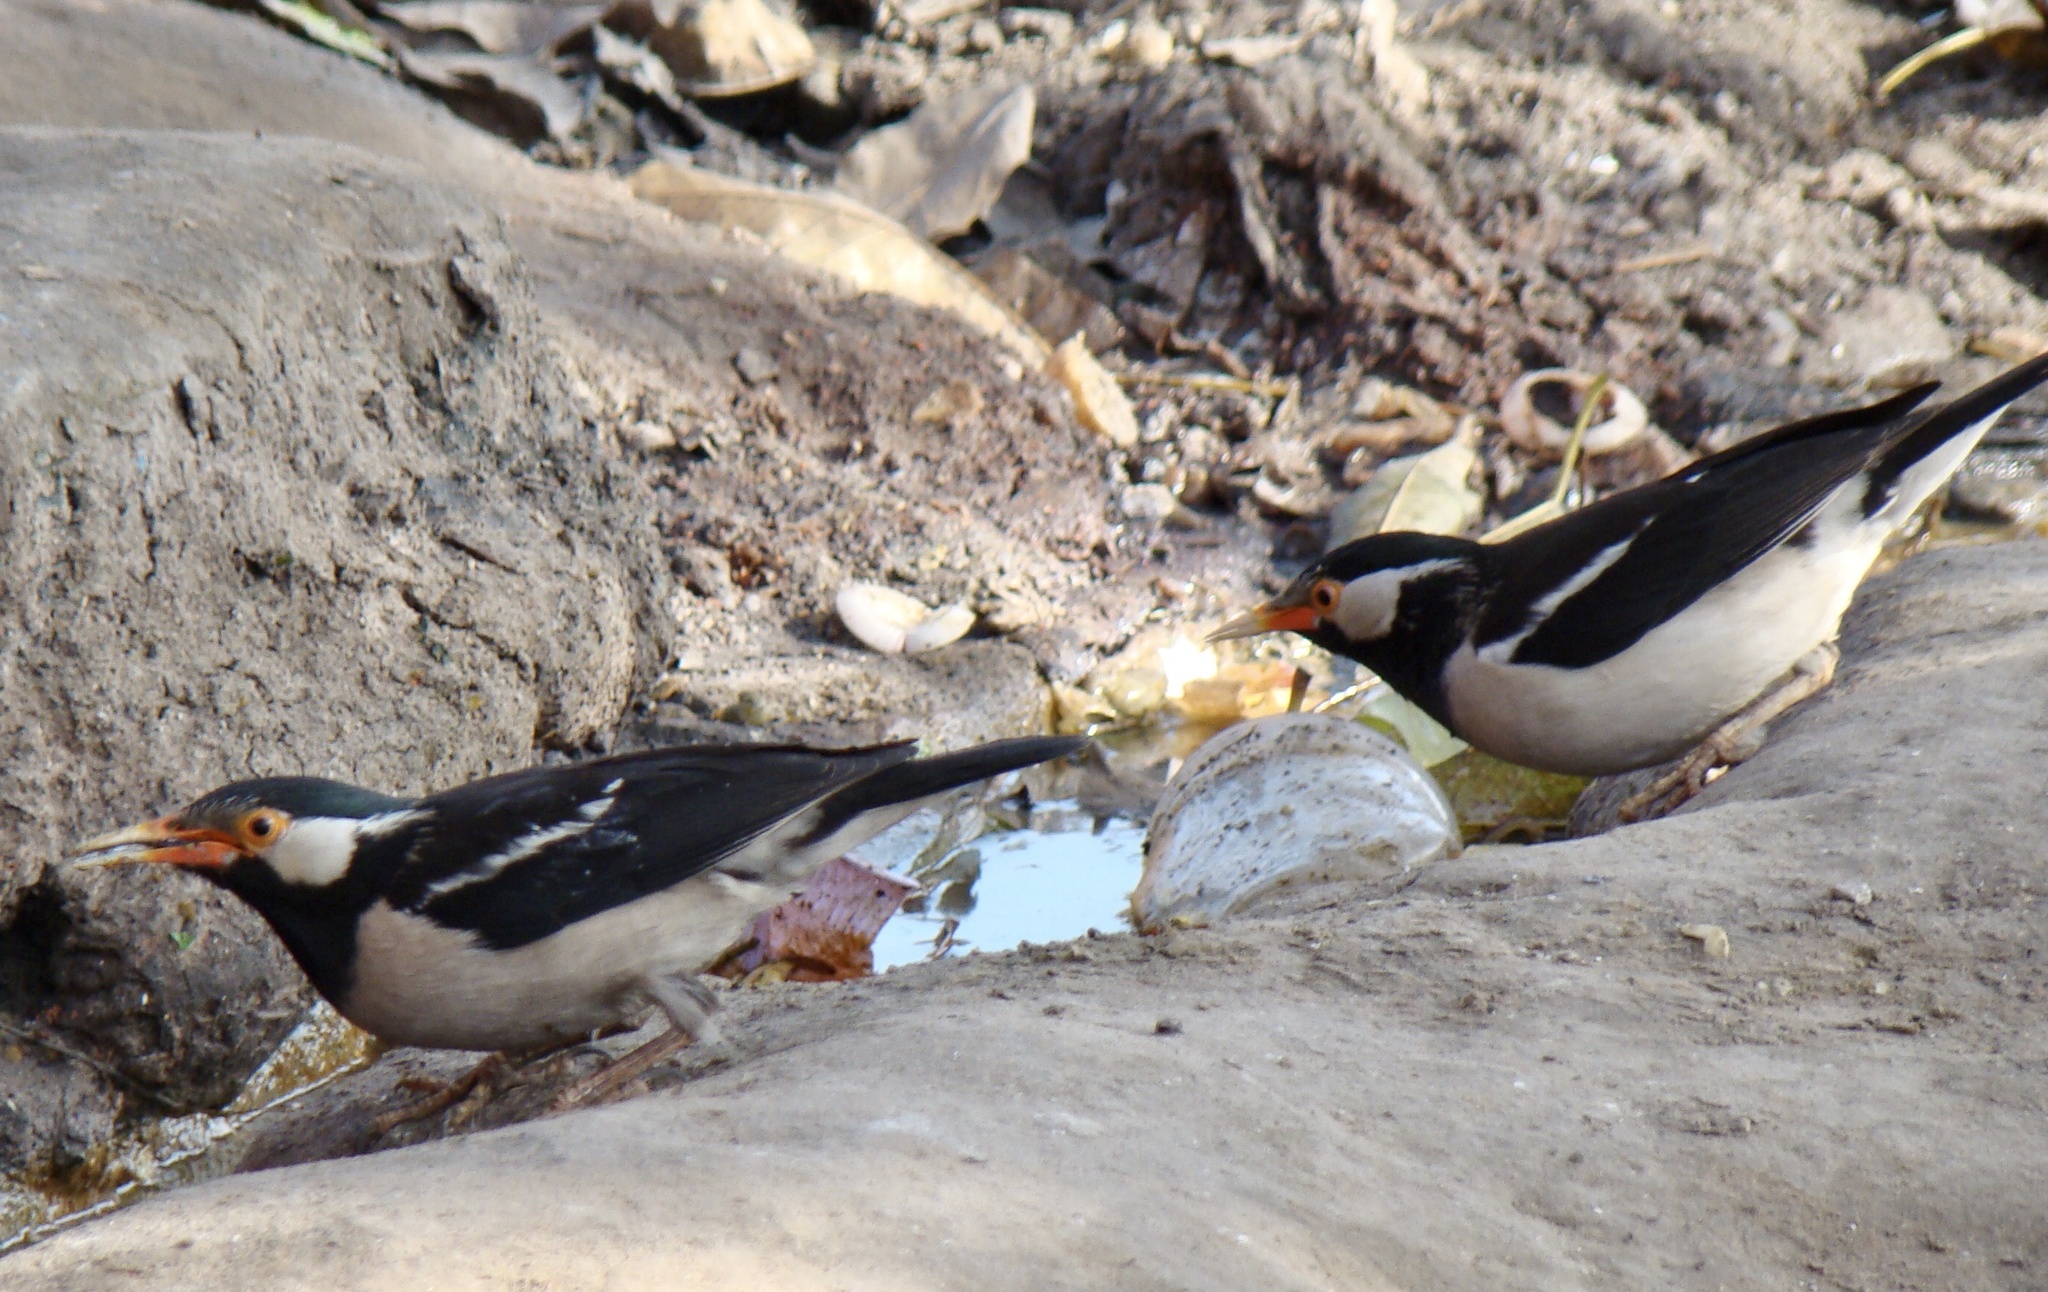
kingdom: Animalia
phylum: Chordata
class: Aves
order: Passeriformes
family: Sturnidae
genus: Gracupica
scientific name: Gracupica contra
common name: Pied myna
